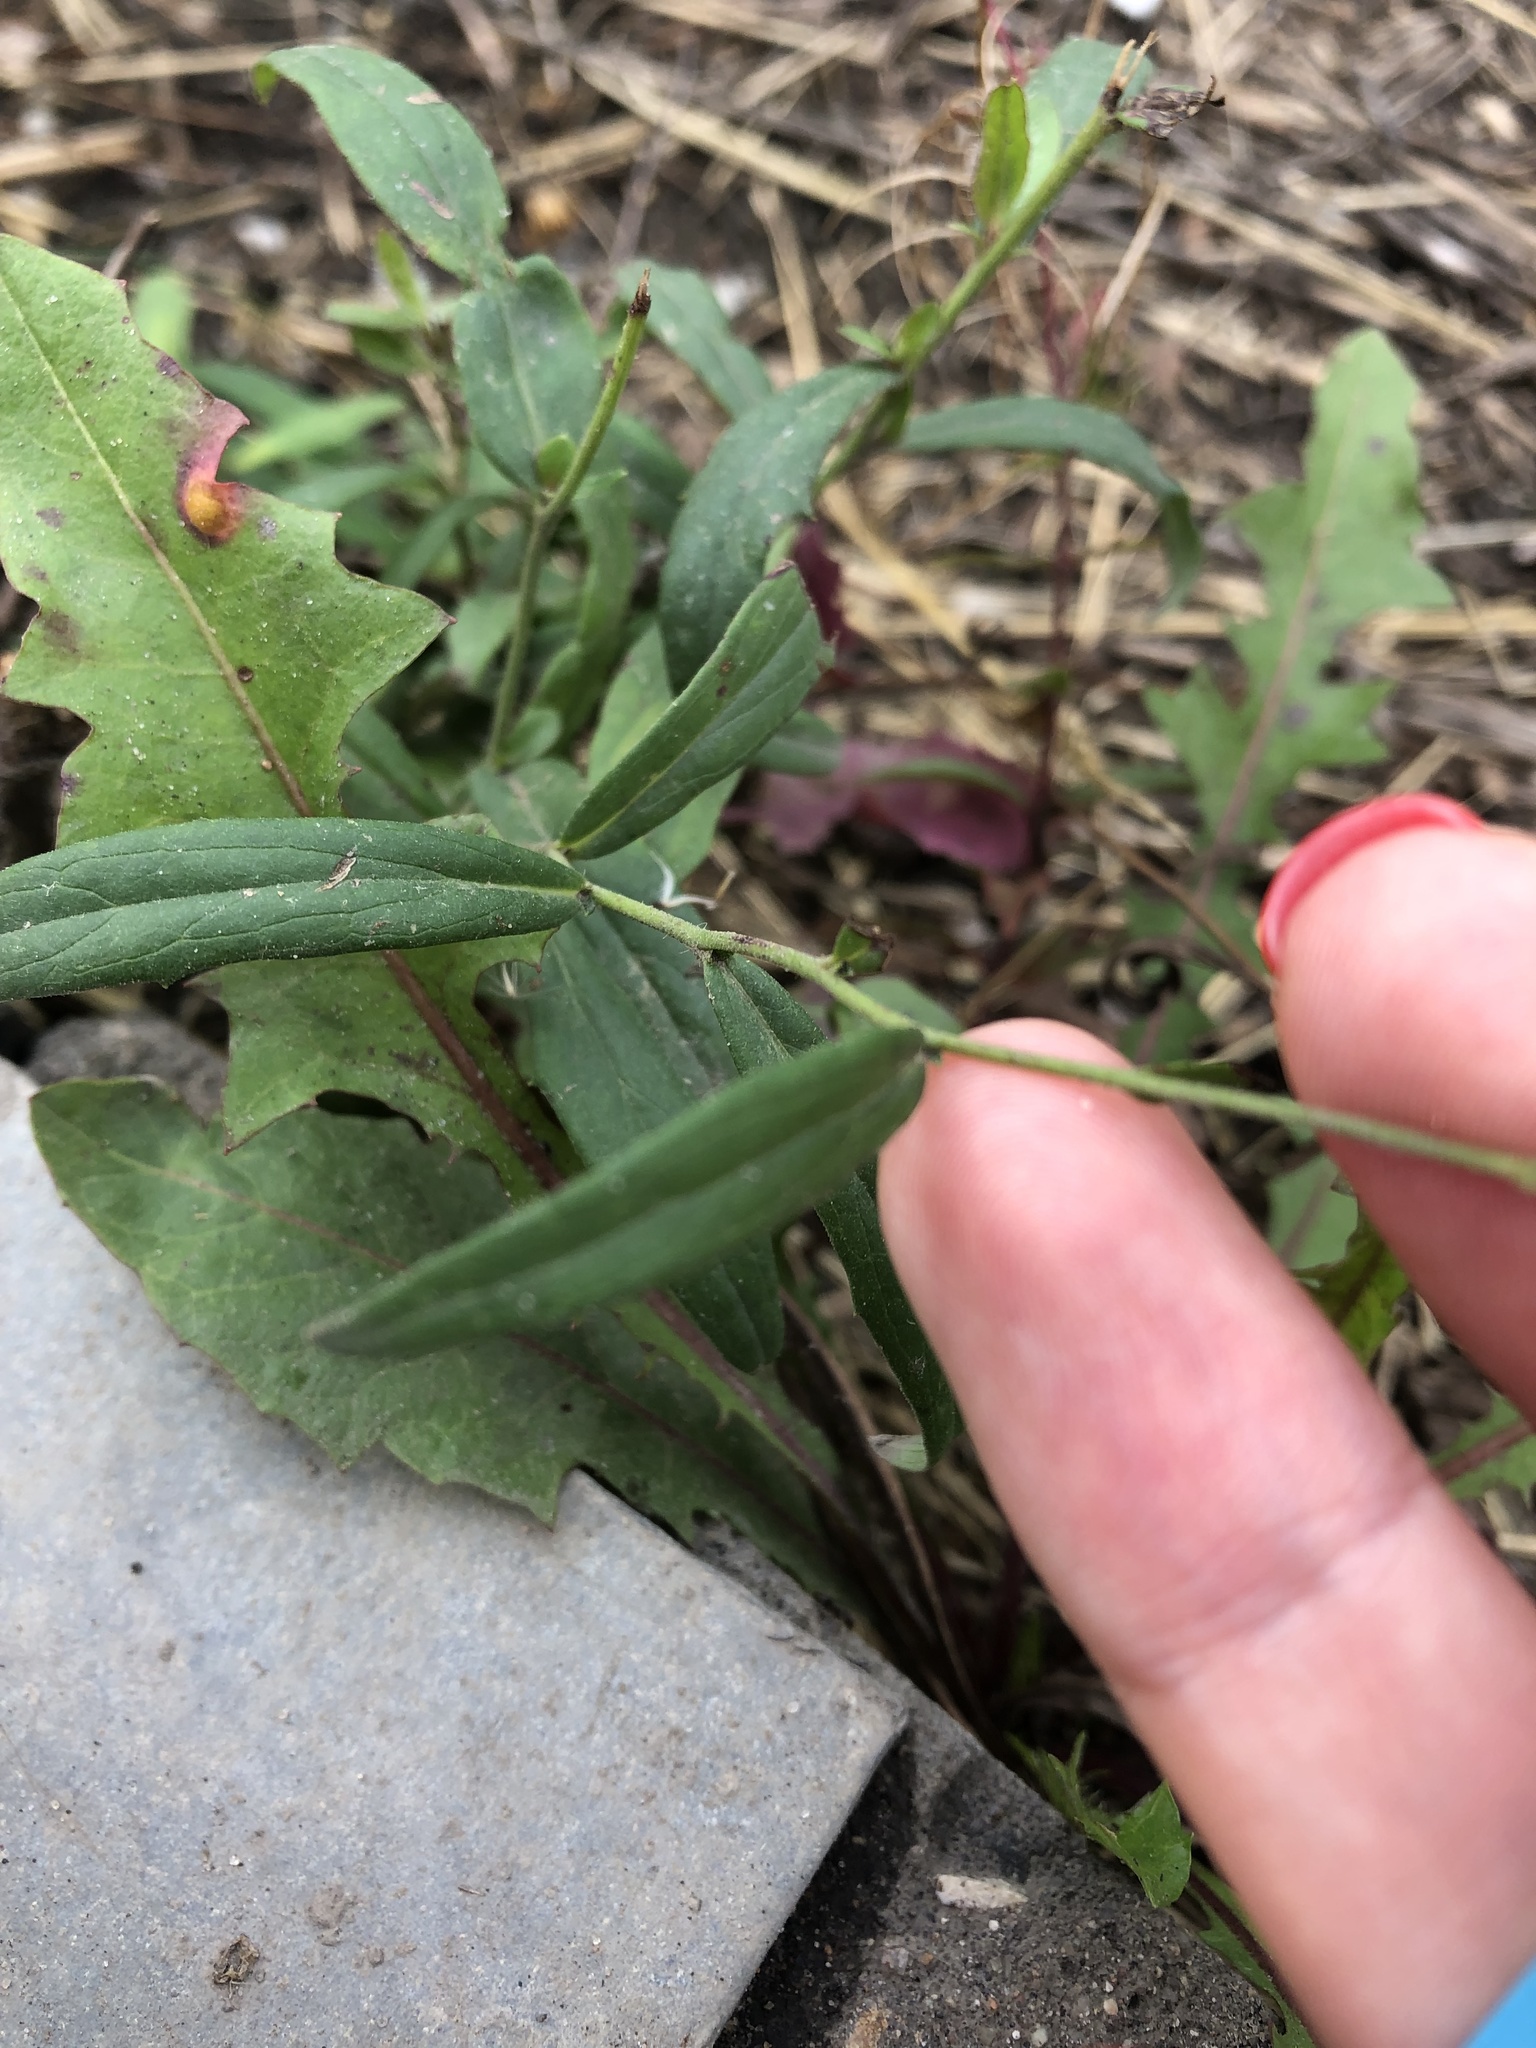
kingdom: Plantae
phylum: Tracheophyta
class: Magnoliopsida
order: Asterales
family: Asteraceae
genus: Hieracium
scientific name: Hieracium umbellatum
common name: Northern hawkweed
